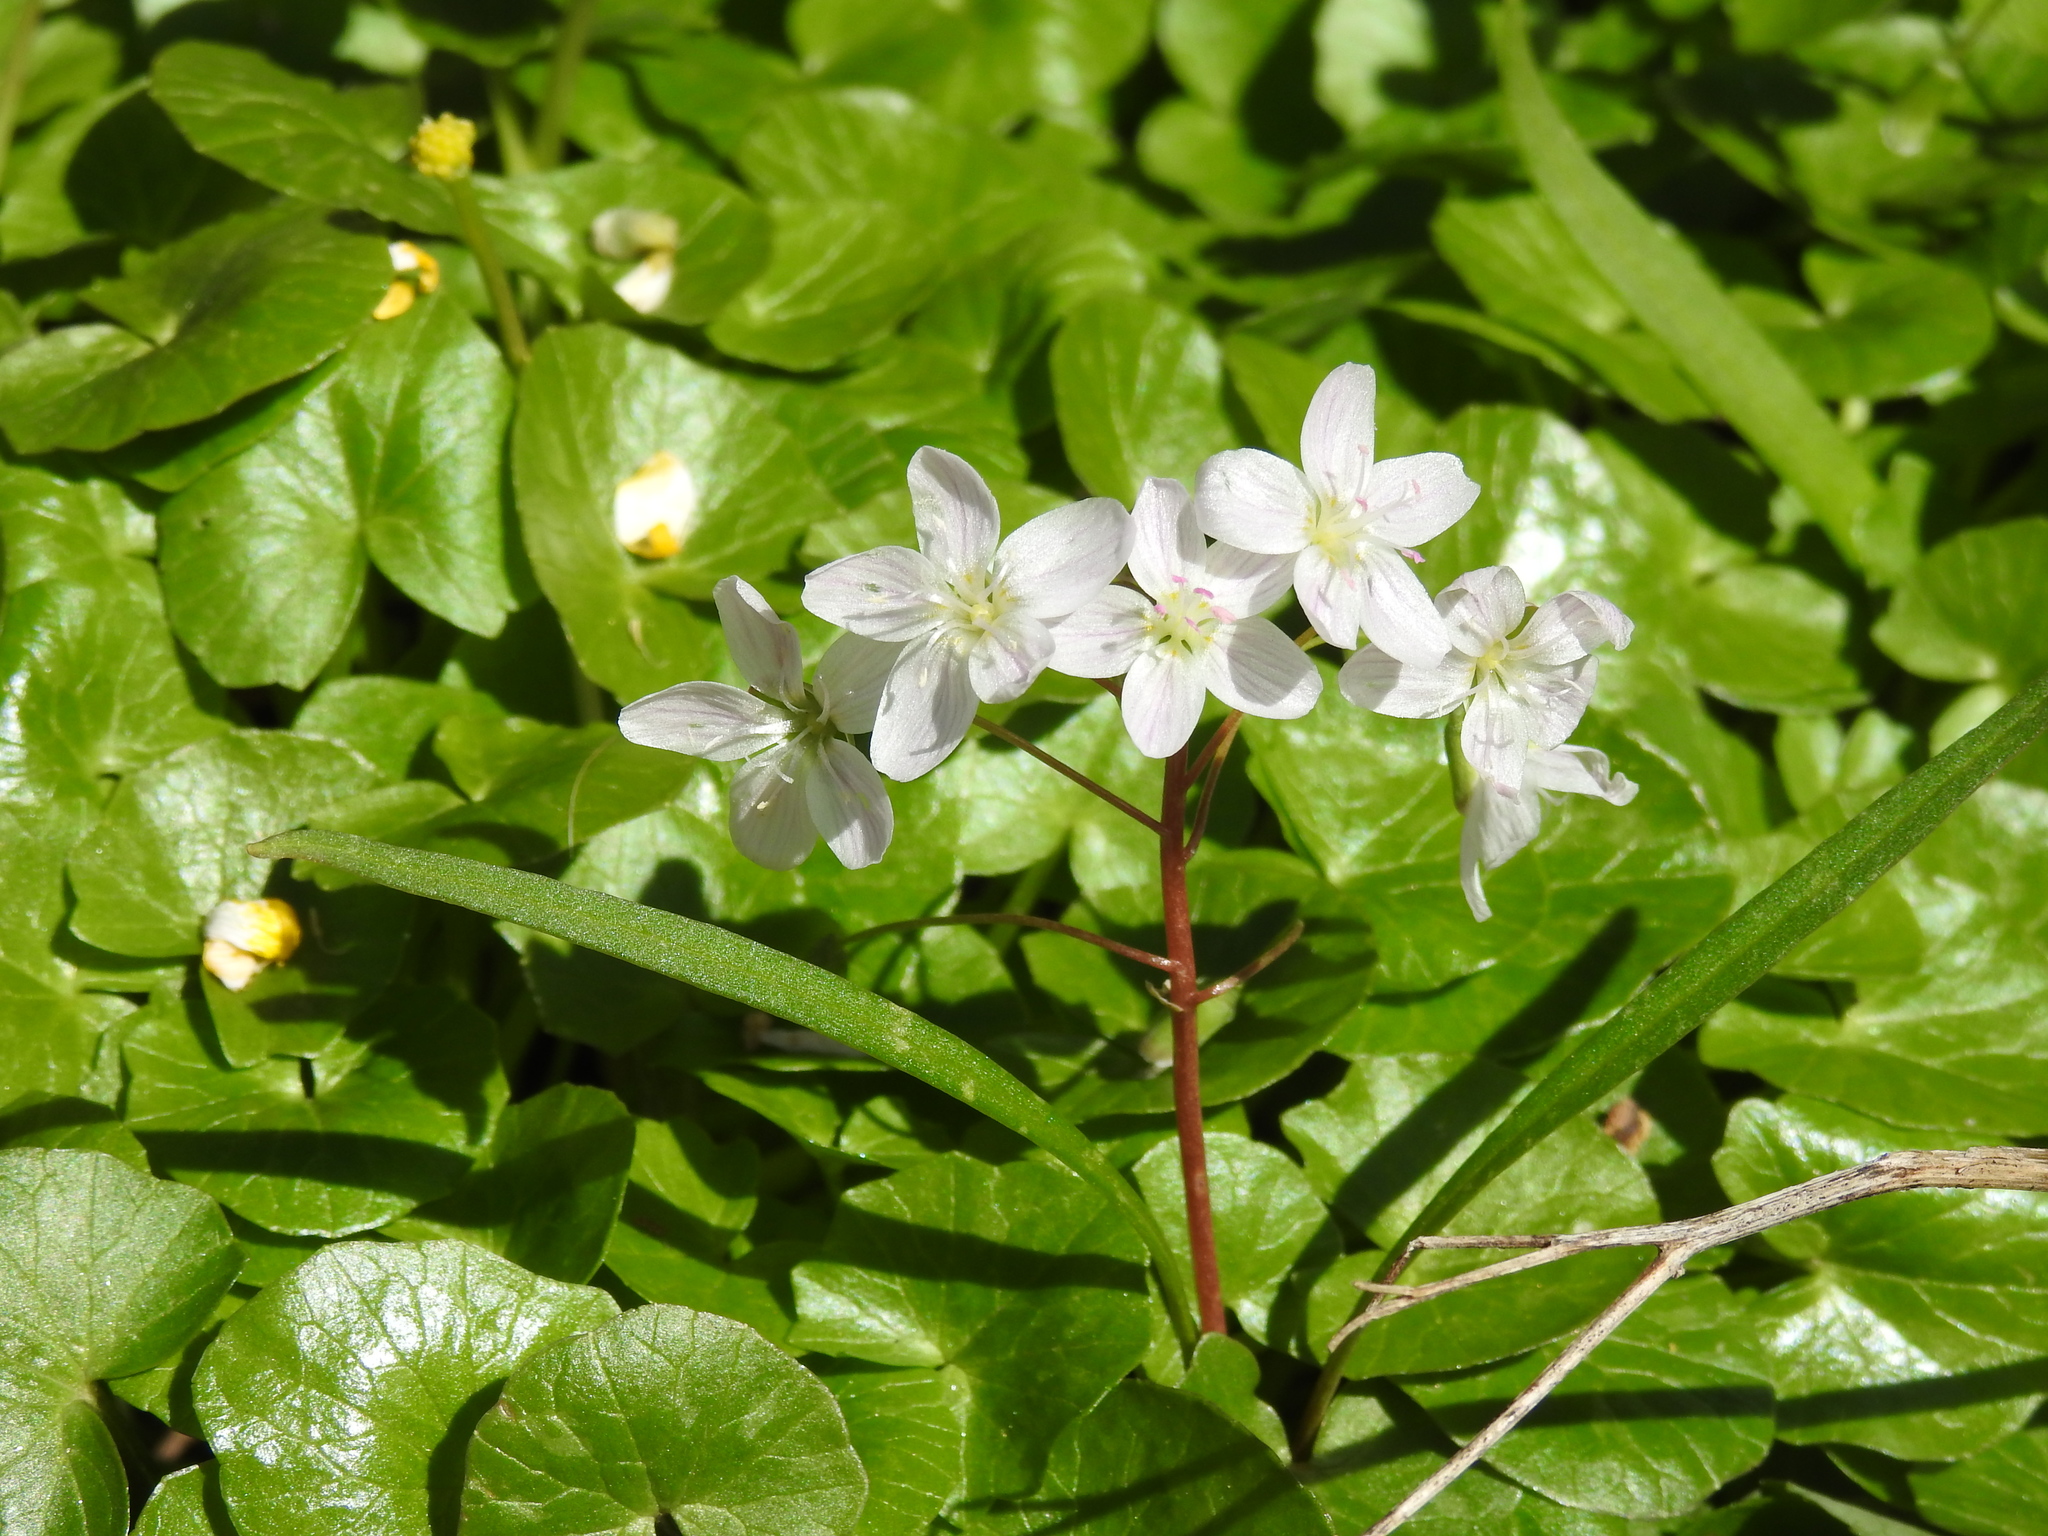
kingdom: Plantae
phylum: Tracheophyta
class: Magnoliopsida
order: Caryophyllales
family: Montiaceae
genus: Claytonia
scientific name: Claytonia virginica
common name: Virginia springbeauty
